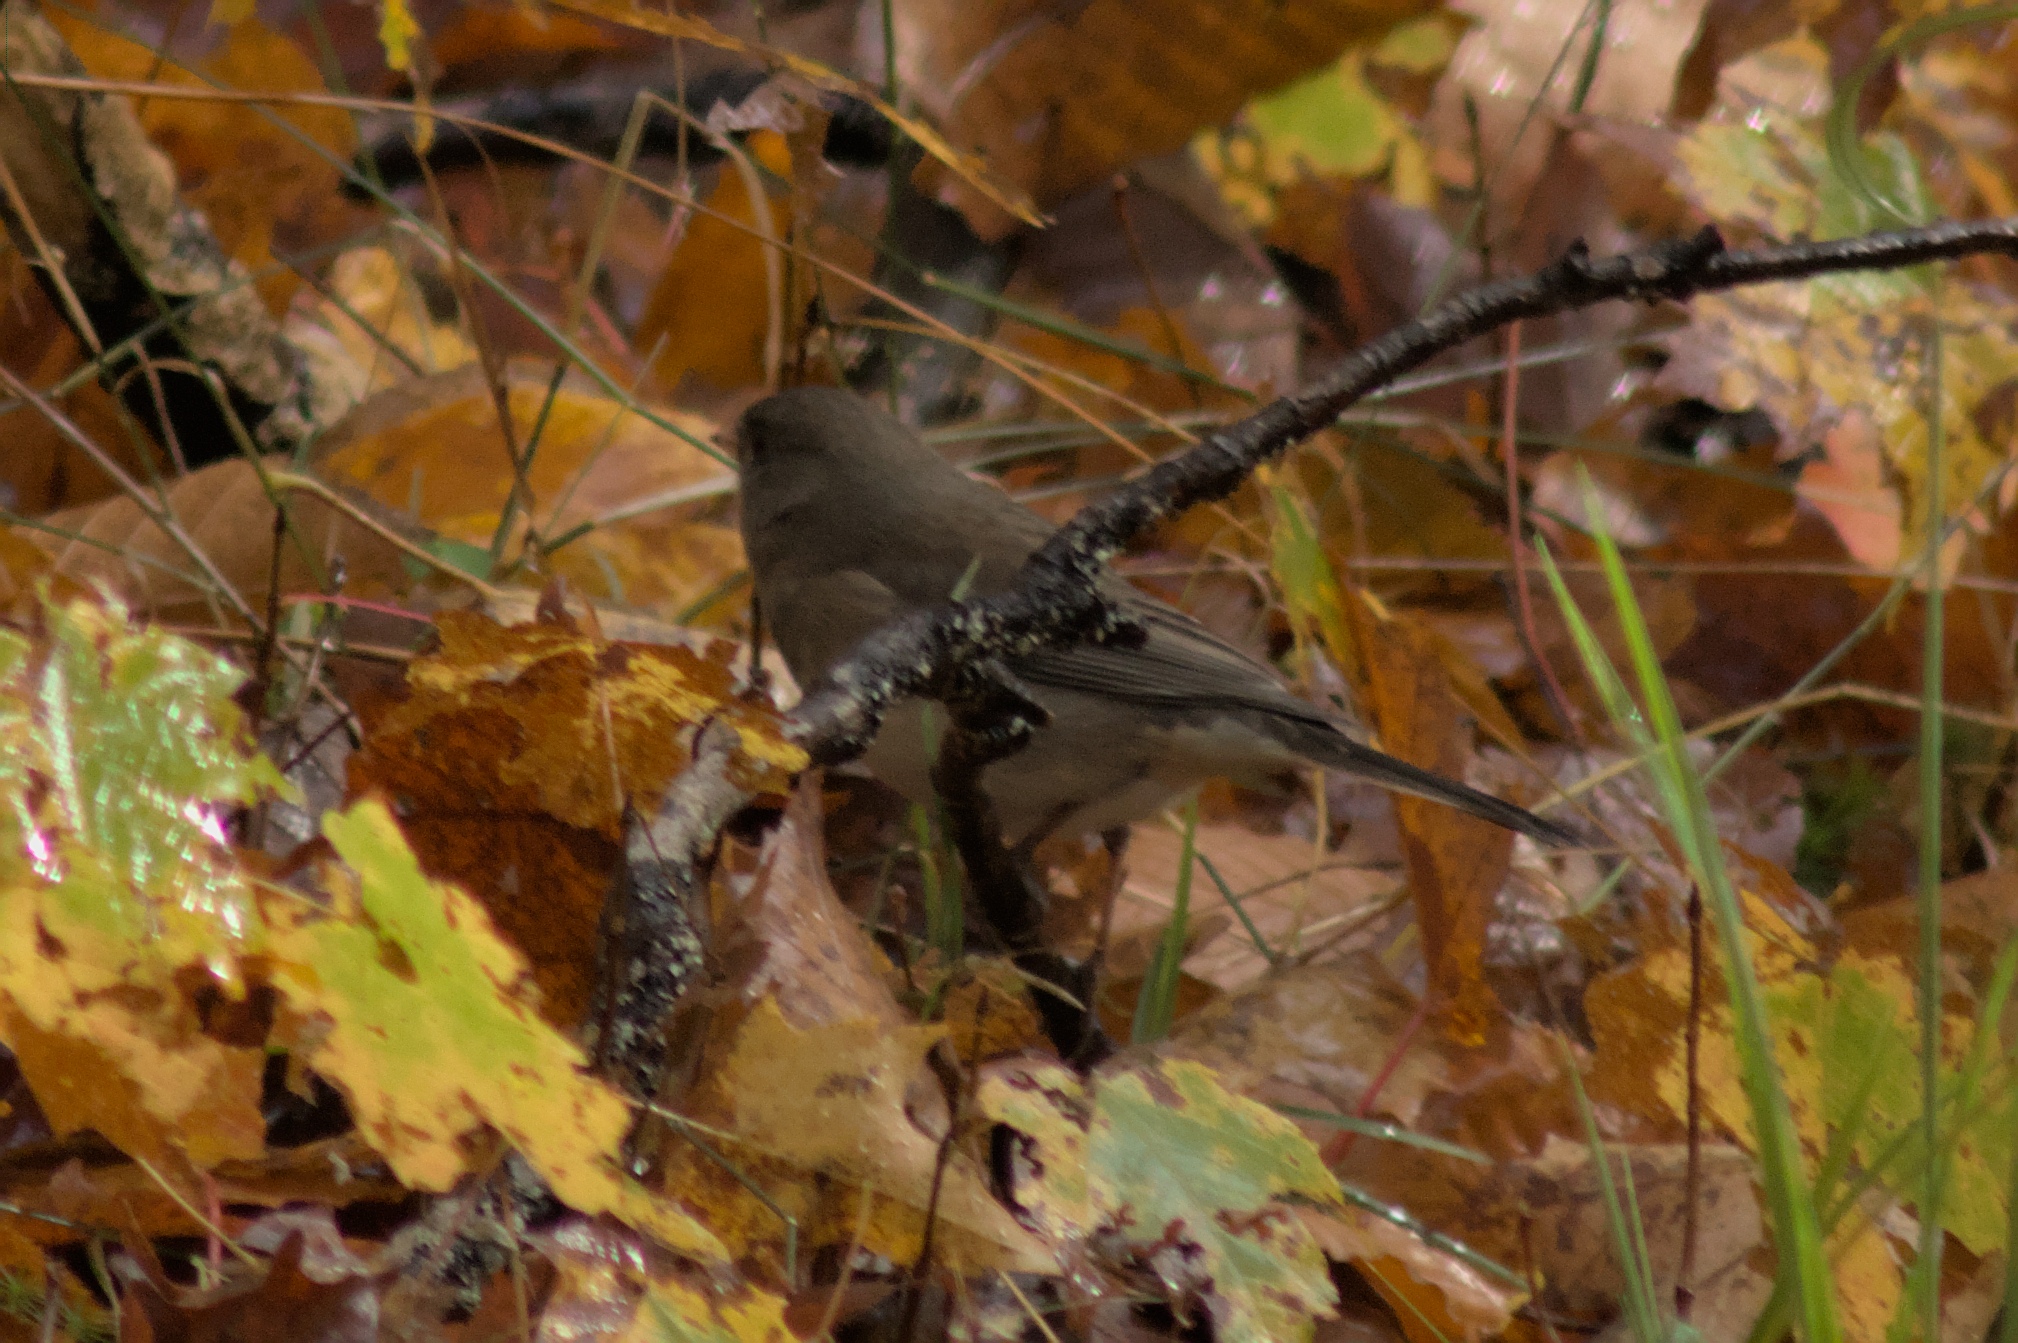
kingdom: Animalia
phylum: Chordata
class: Aves
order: Passeriformes
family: Passerellidae
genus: Junco
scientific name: Junco hyemalis
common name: Dark-eyed junco
